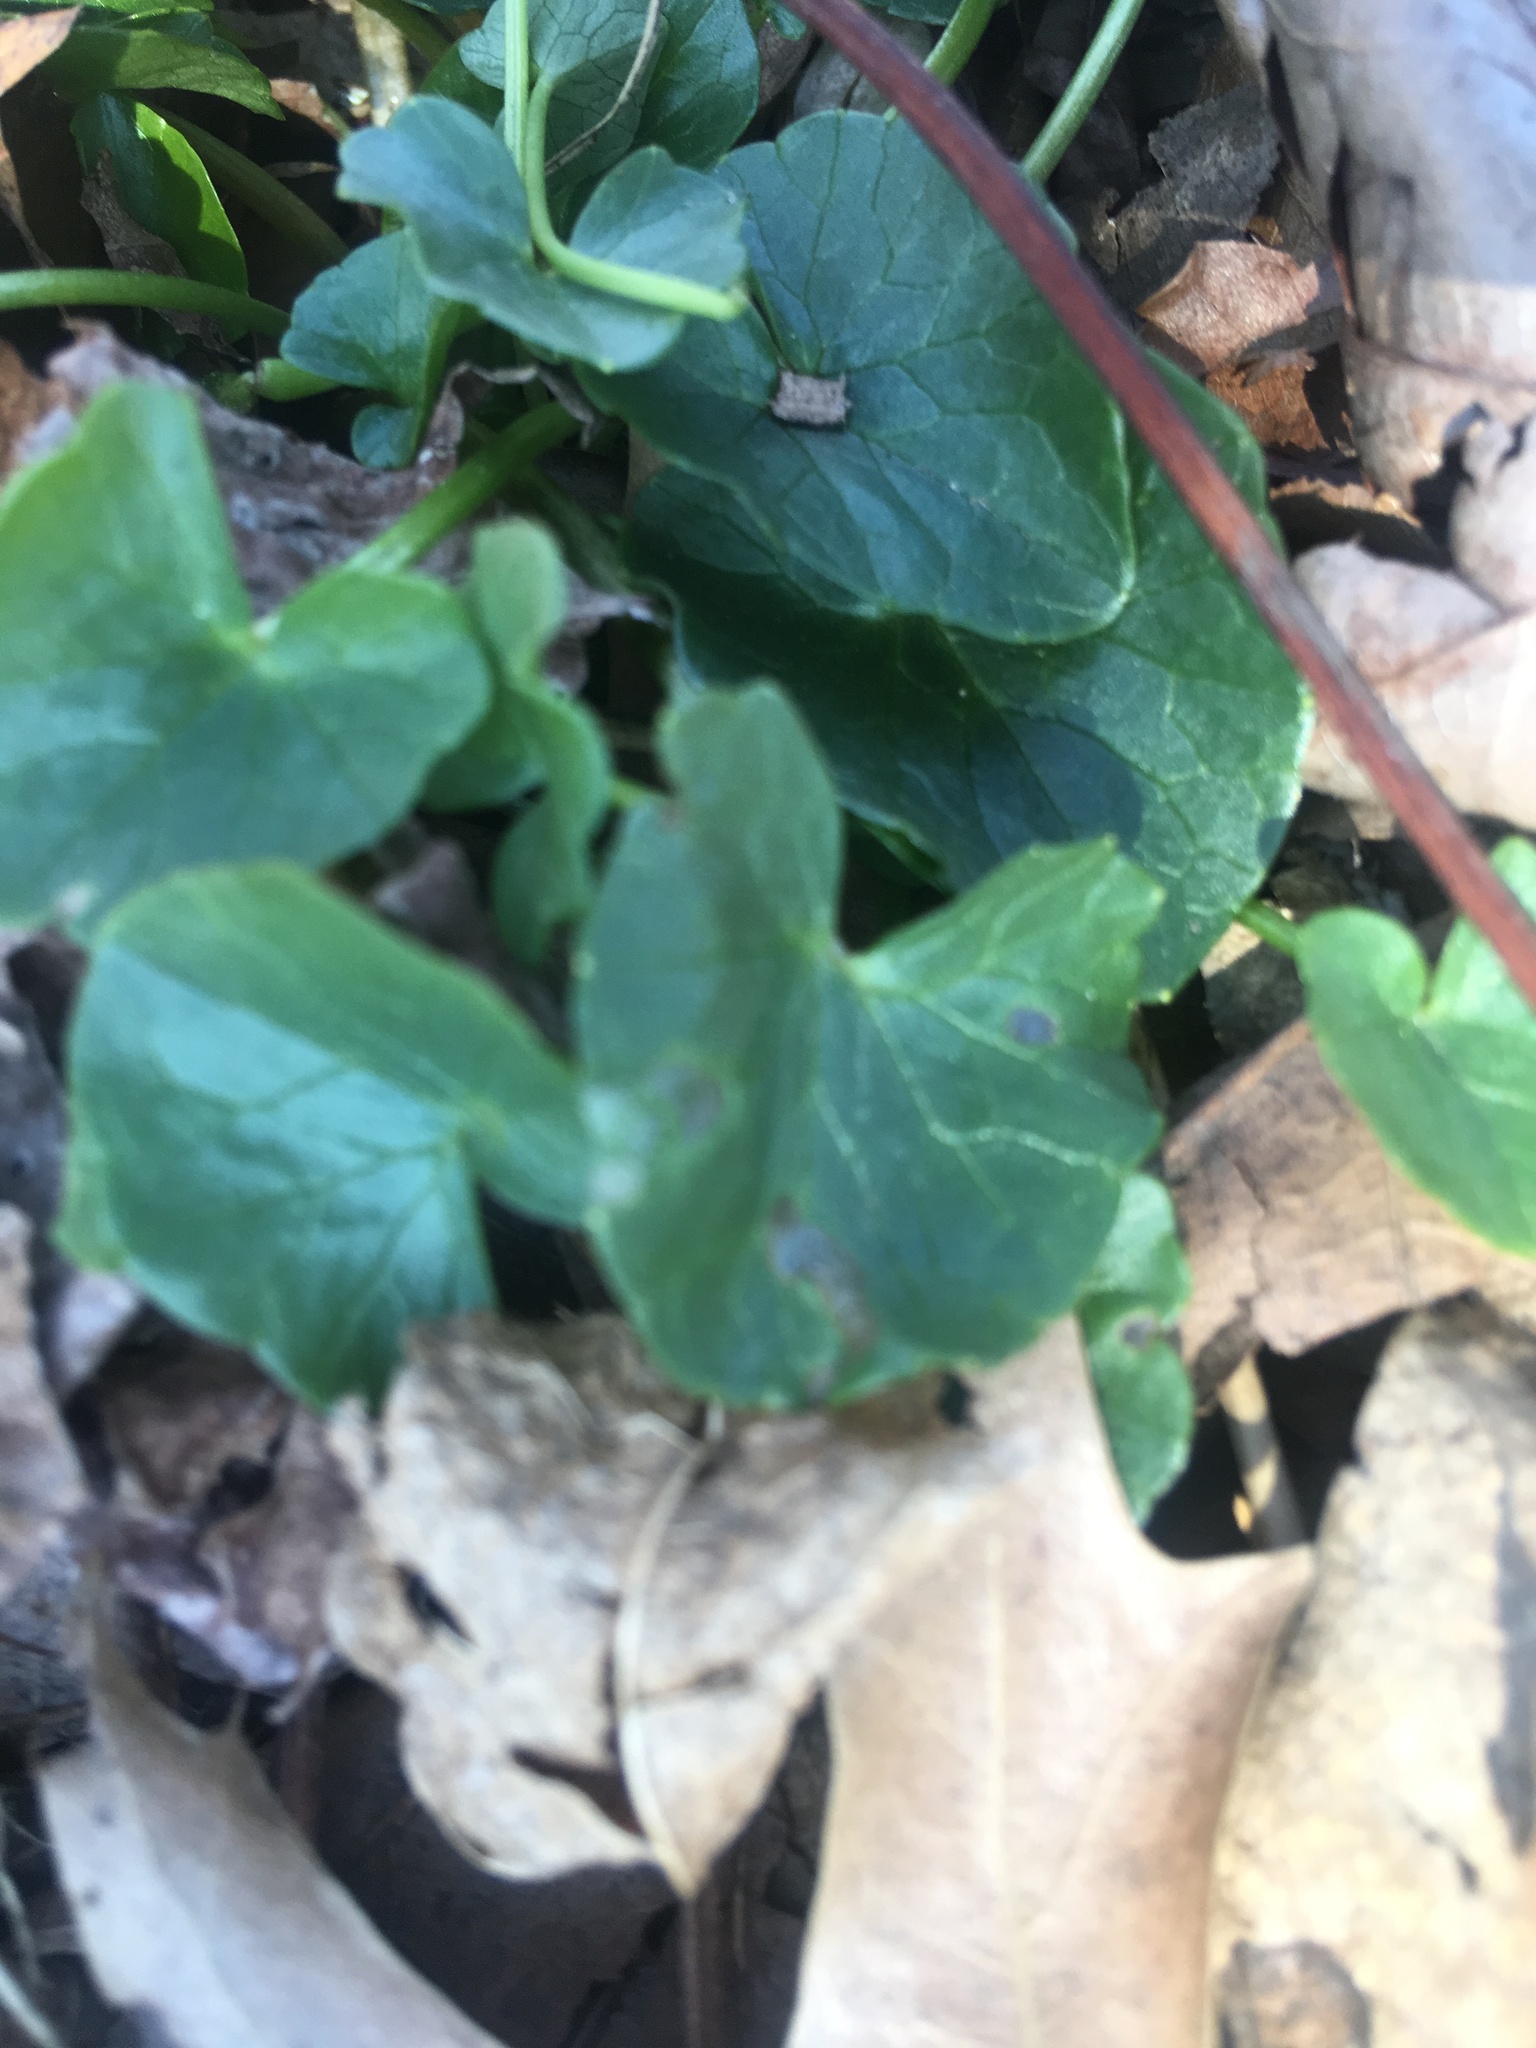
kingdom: Plantae
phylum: Tracheophyta
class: Magnoliopsida
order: Ranunculales
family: Ranunculaceae
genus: Ficaria
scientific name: Ficaria verna
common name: Lesser celandine
